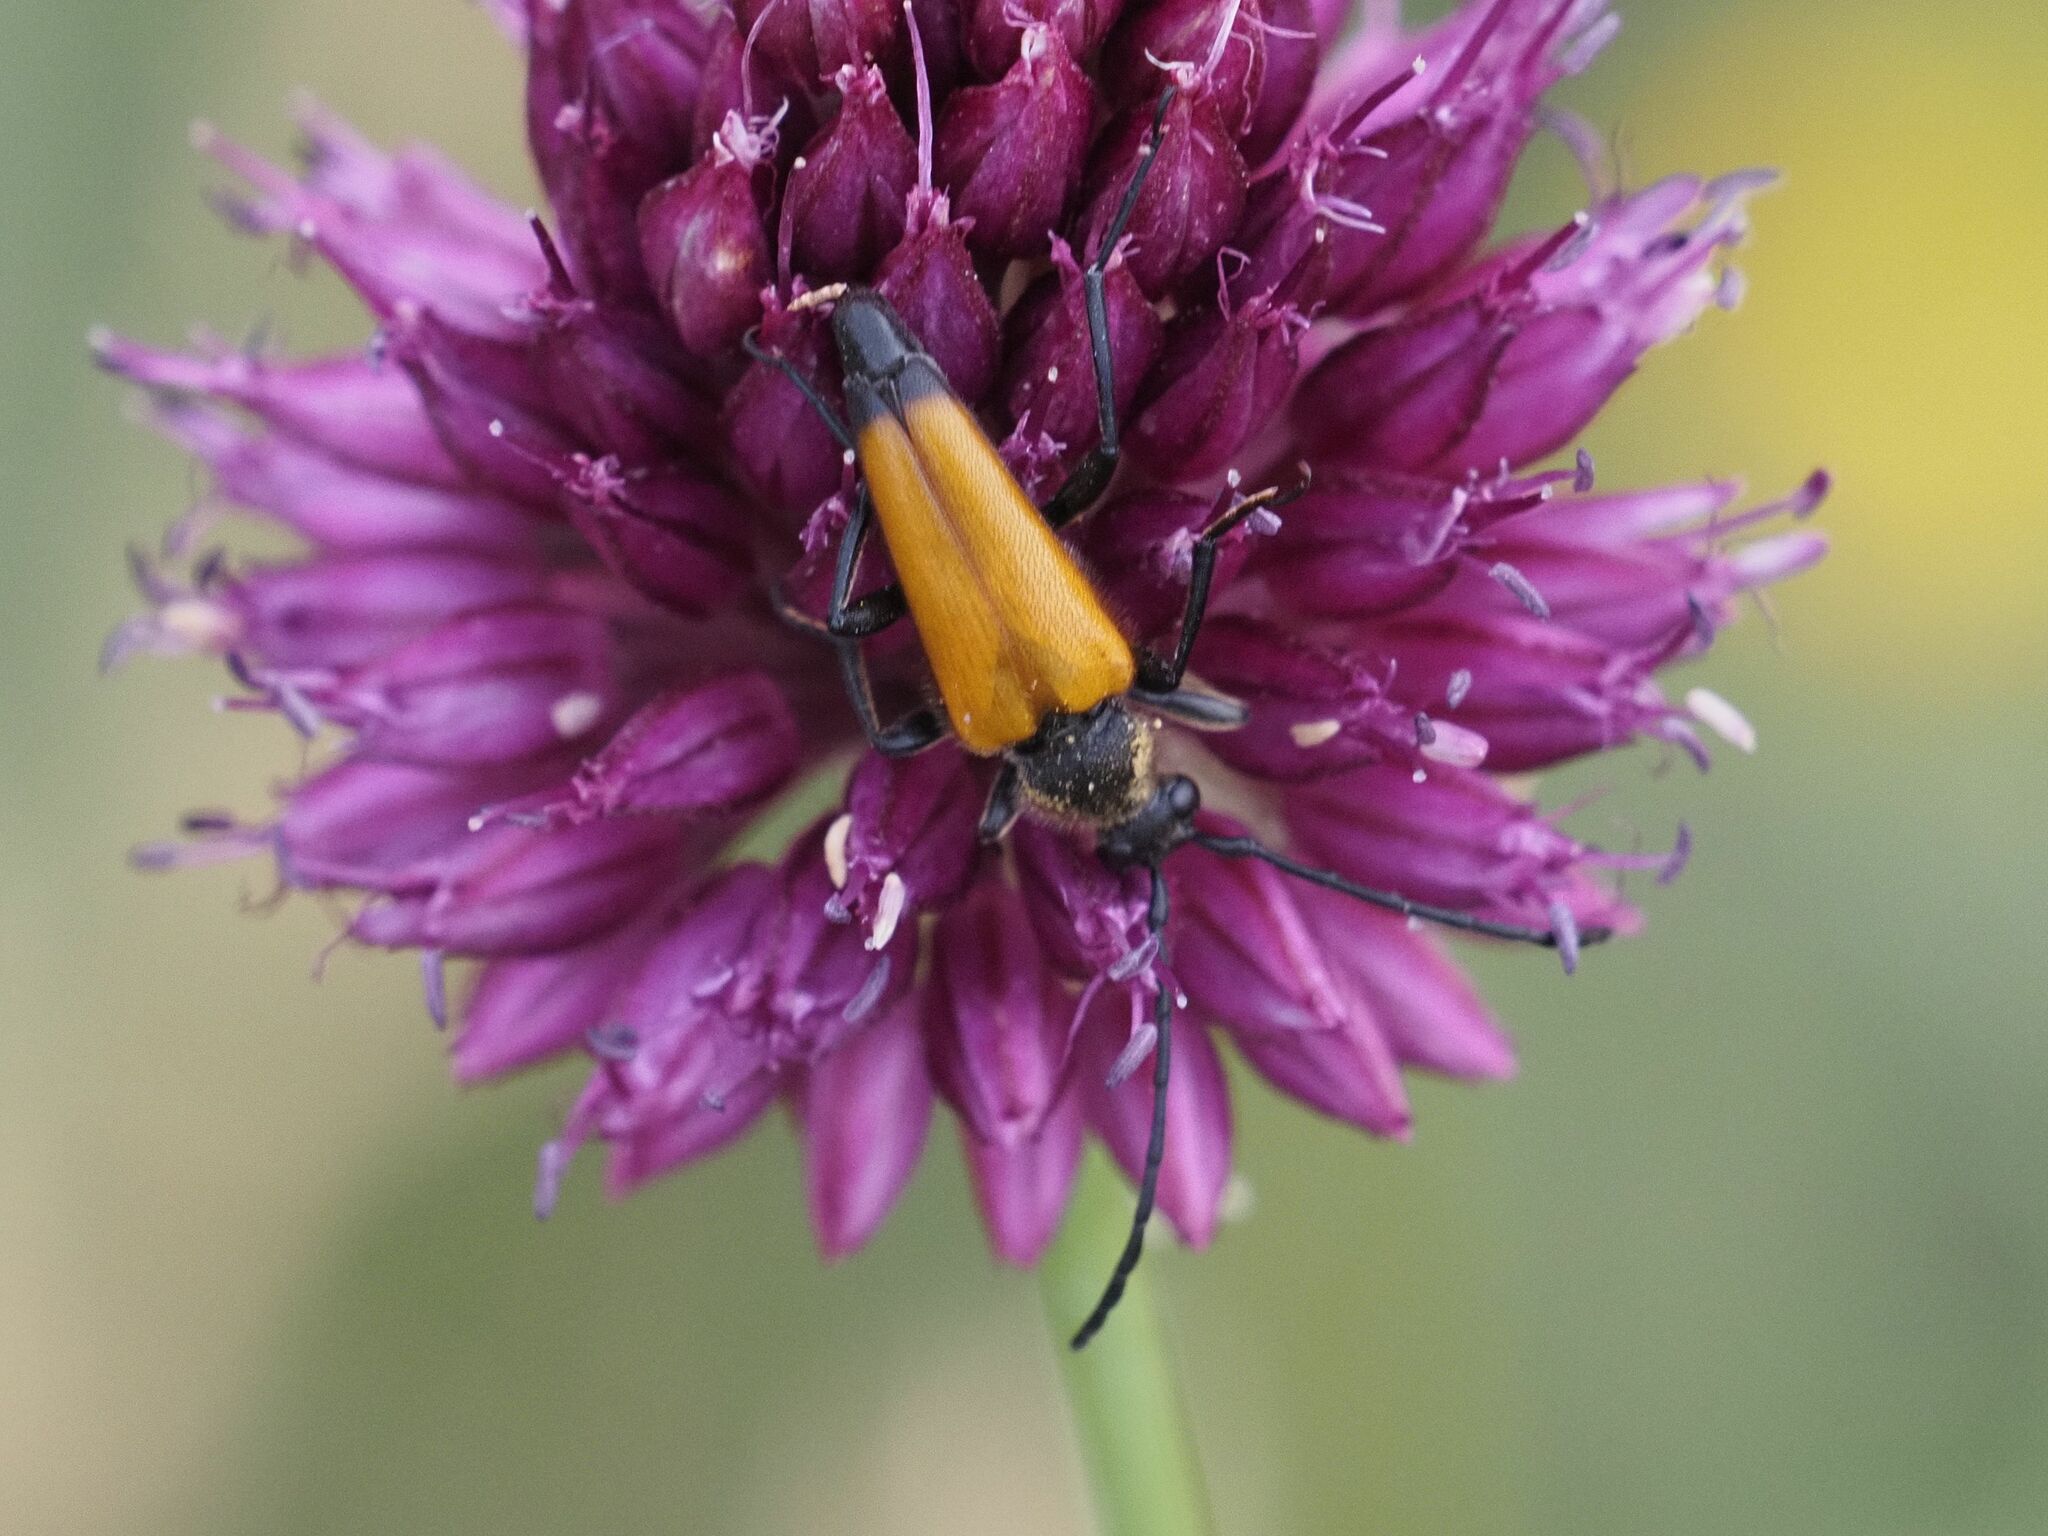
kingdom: Animalia
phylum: Arthropoda
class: Insecta
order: Coleoptera
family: Cerambycidae
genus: Paracorymbia
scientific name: Paracorymbia fulva
